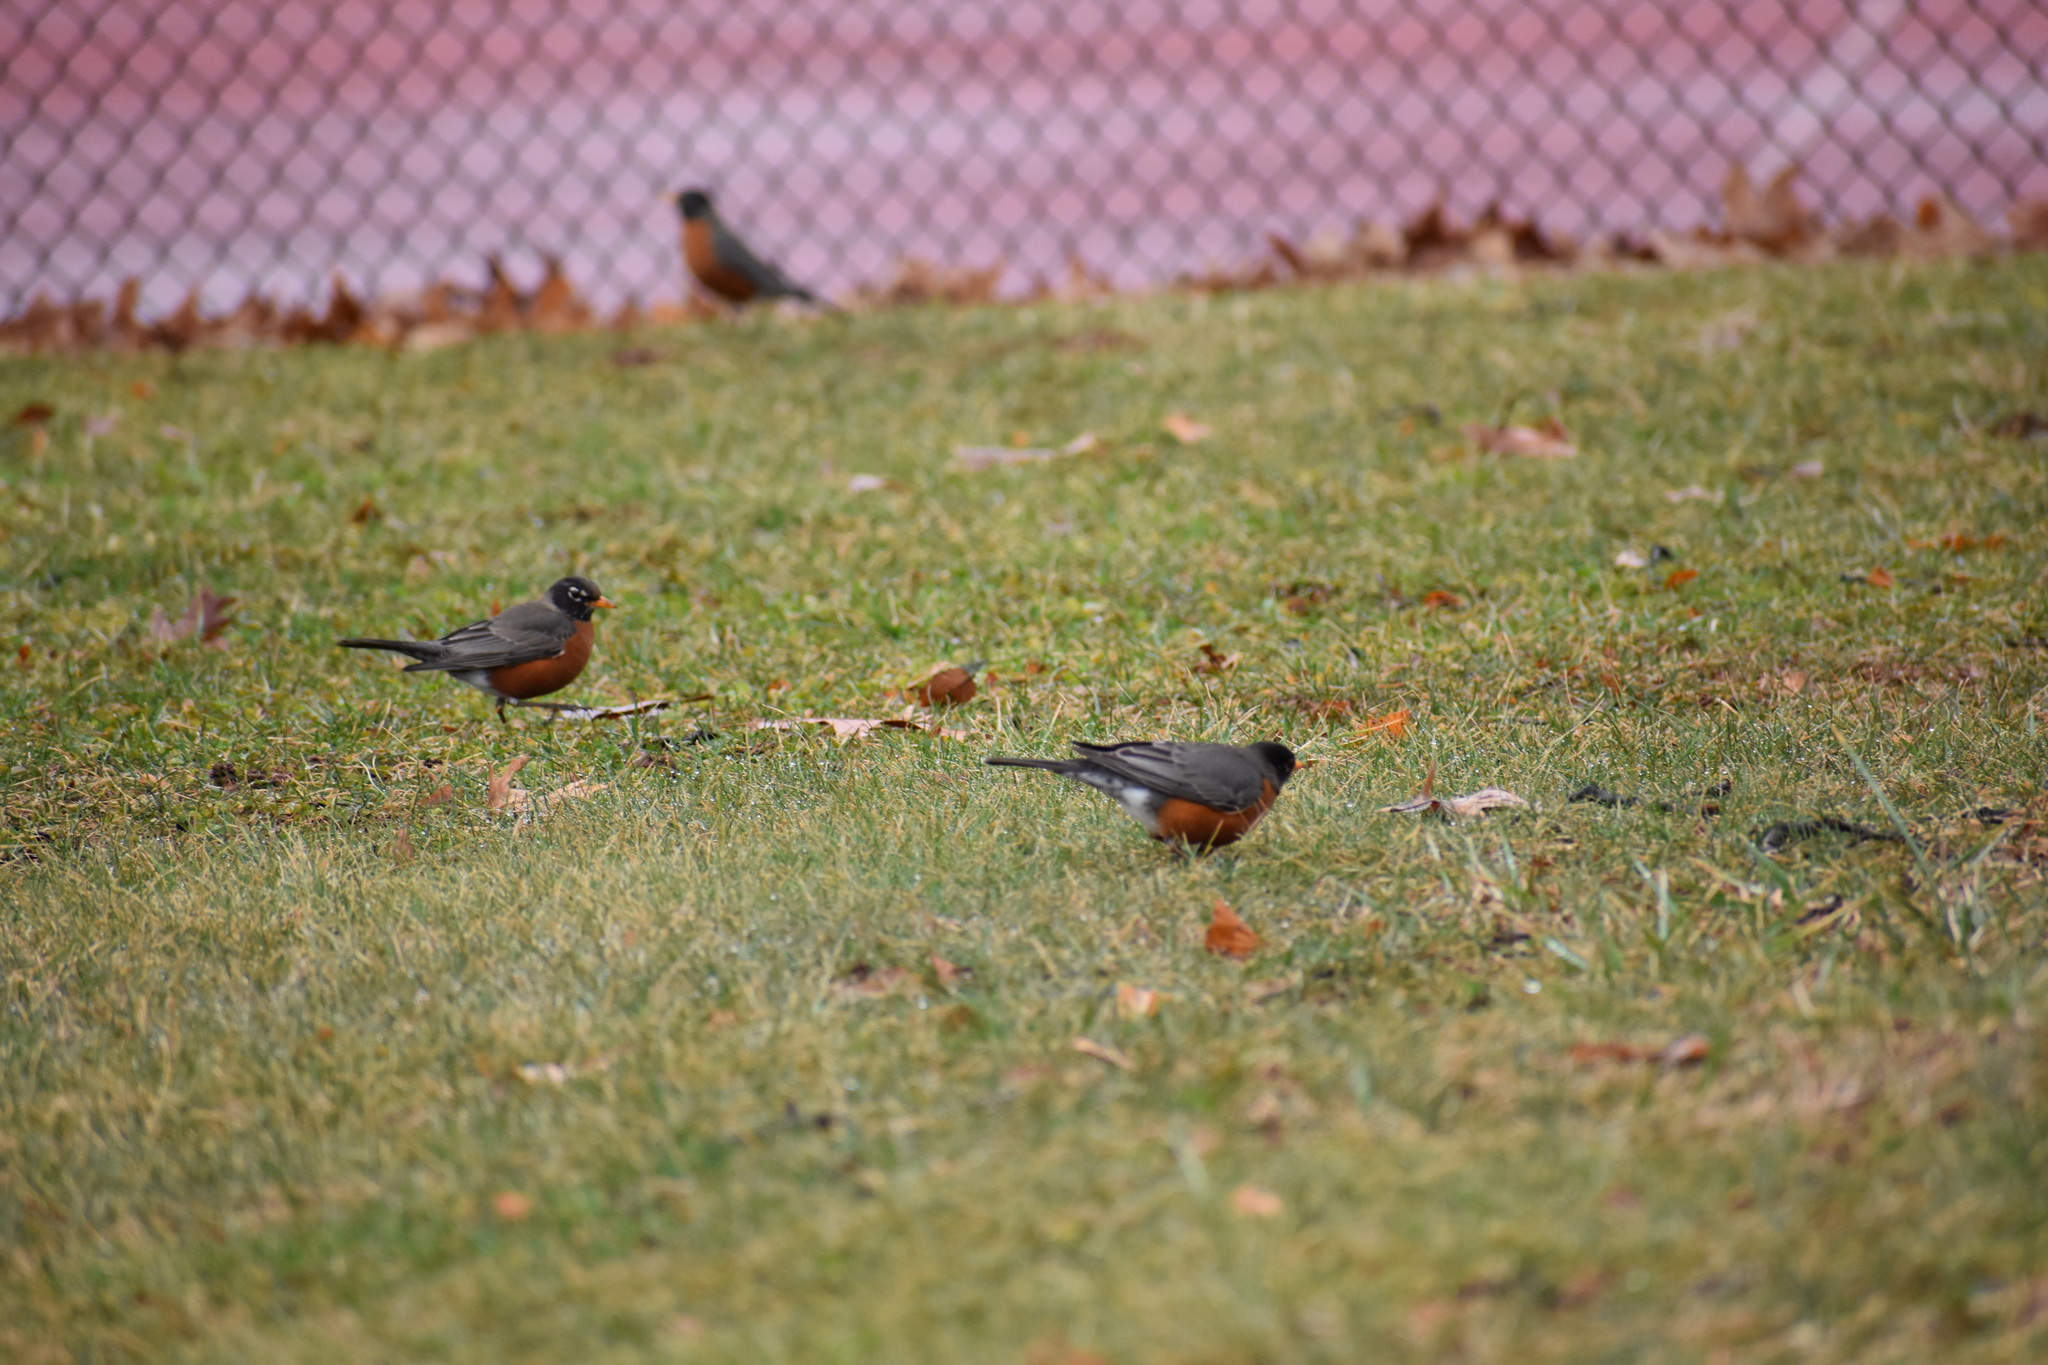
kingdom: Animalia
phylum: Chordata
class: Aves
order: Passeriformes
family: Turdidae
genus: Turdus
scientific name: Turdus migratorius
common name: American robin
